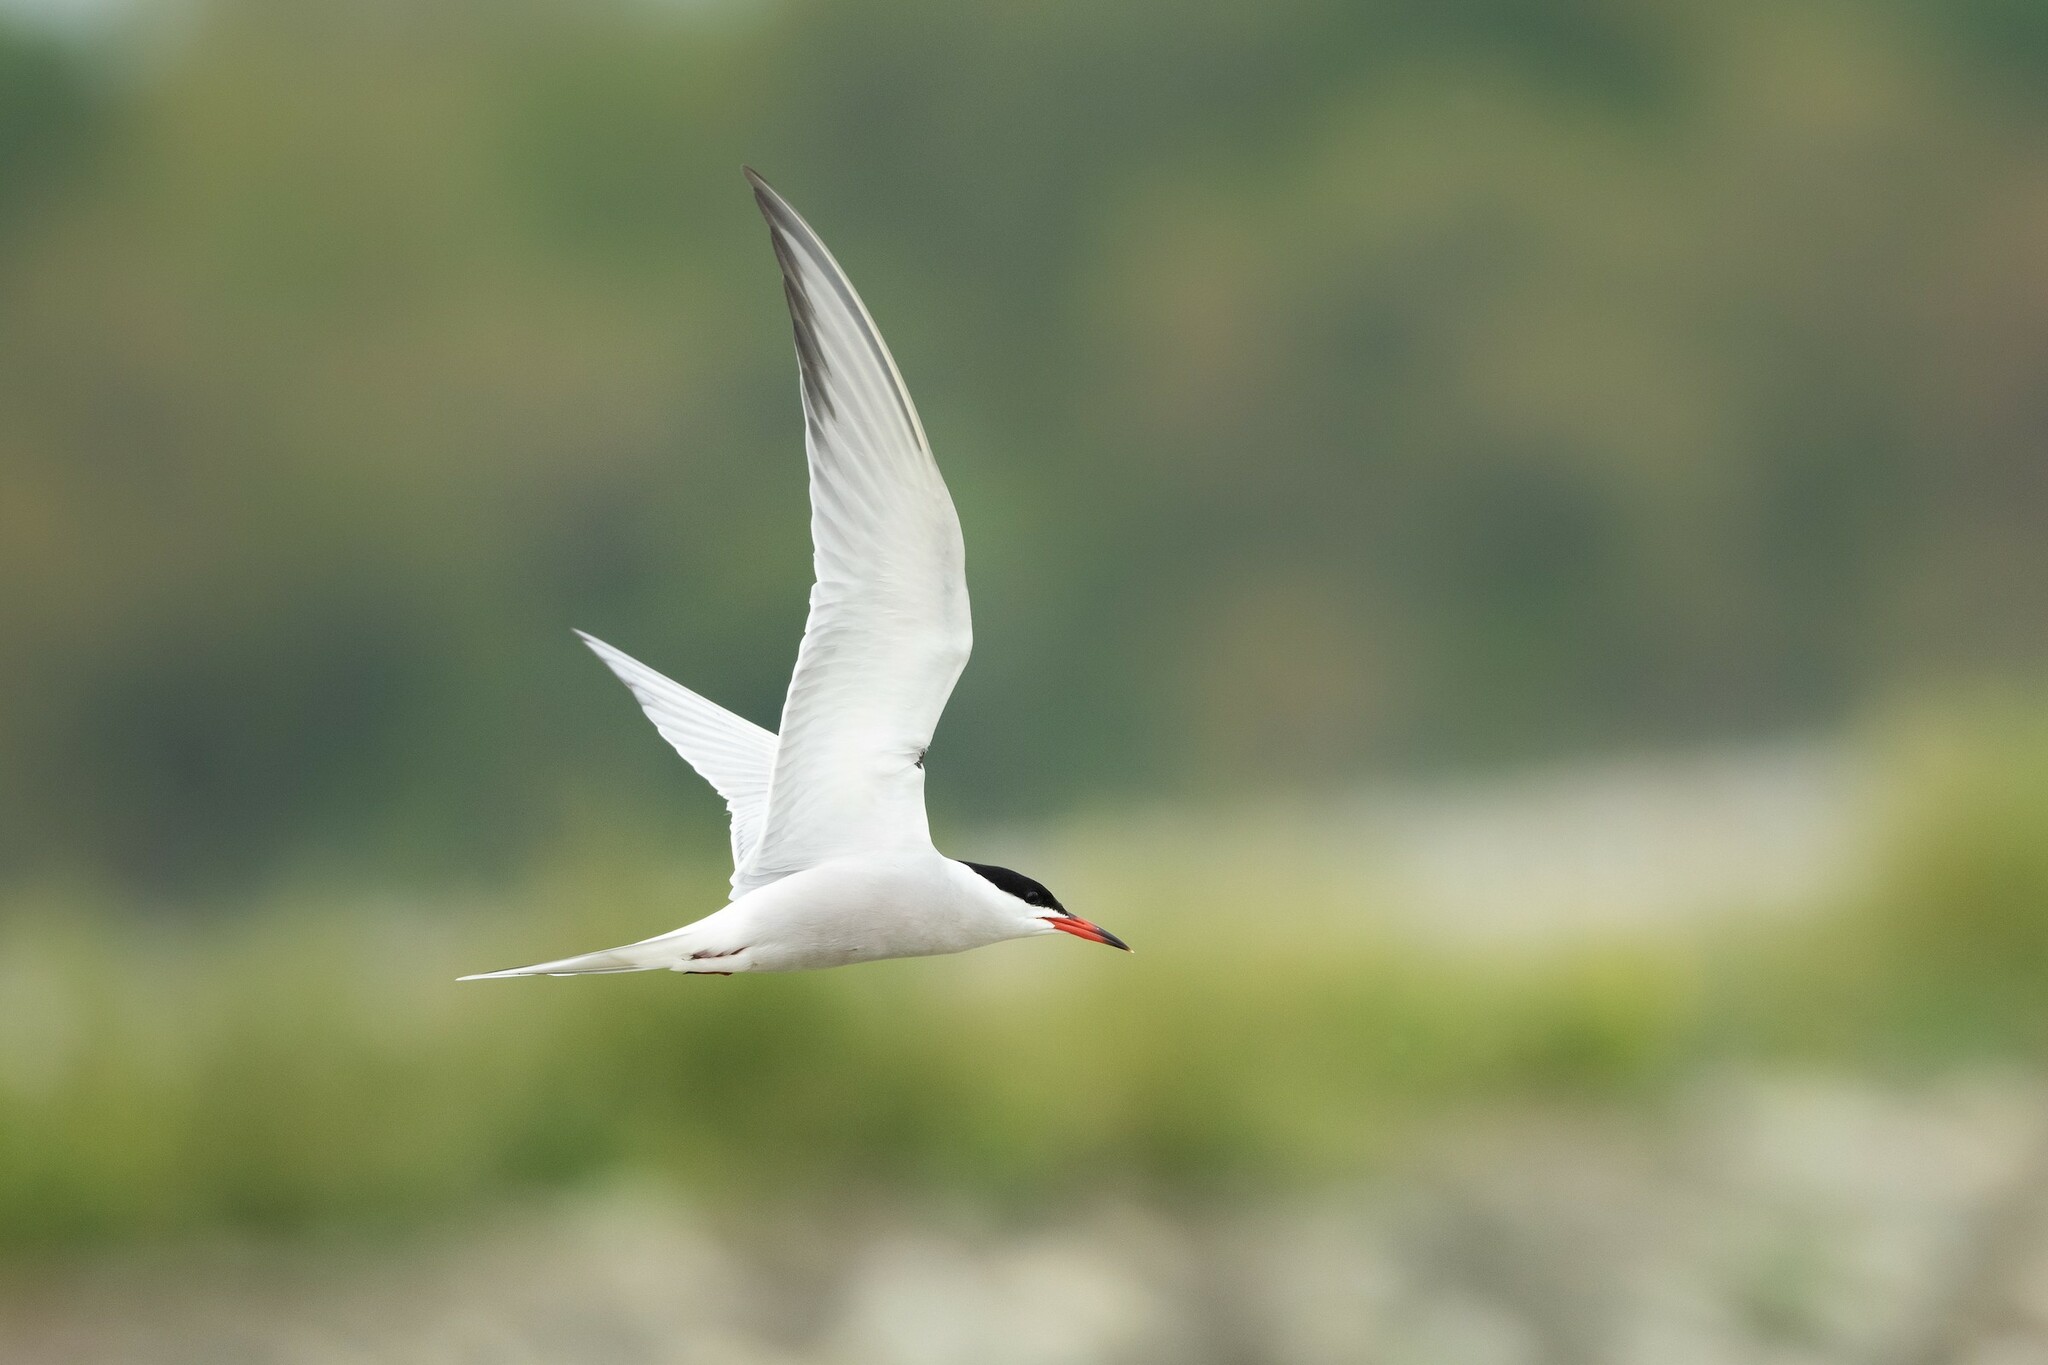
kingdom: Animalia
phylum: Chordata
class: Aves
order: Charadriiformes
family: Laridae
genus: Sterna
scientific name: Sterna hirundo
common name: Common tern
